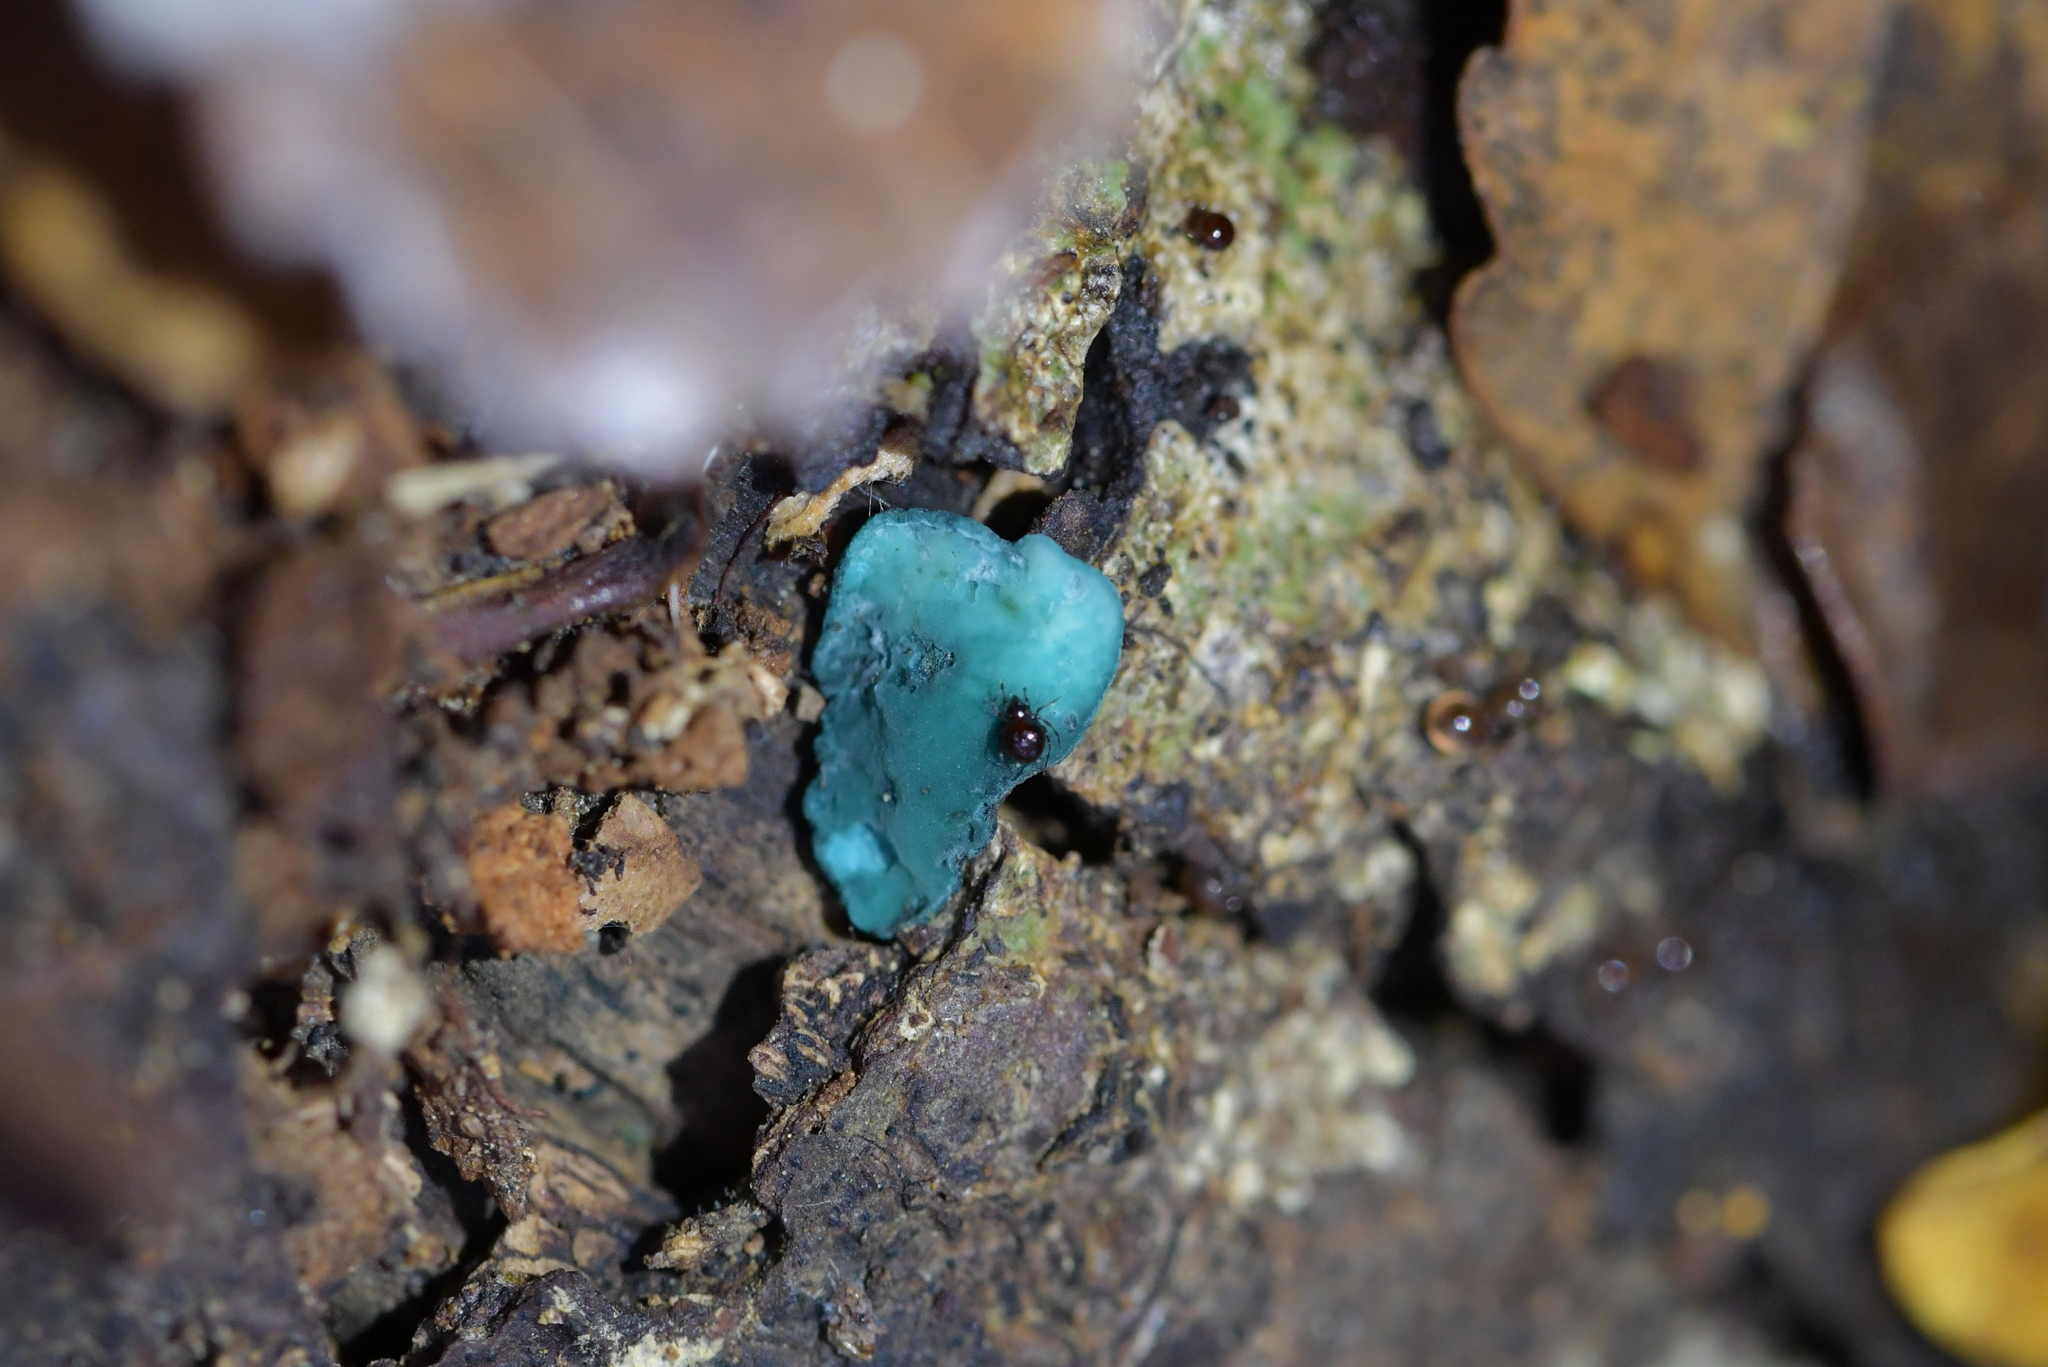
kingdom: Fungi
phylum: Ascomycota
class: Leotiomycetes
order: Helotiales
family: Chlorociboriaceae
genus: Chlorociboria
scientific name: Chlorociboria
